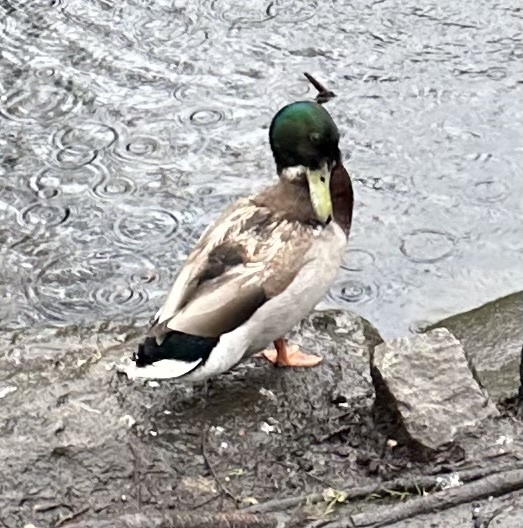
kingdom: Animalia
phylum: Chordata
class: Aves
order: Anseriformes
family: Anatidae
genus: Anas
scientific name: Anas platyrhynchos
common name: Mallard
